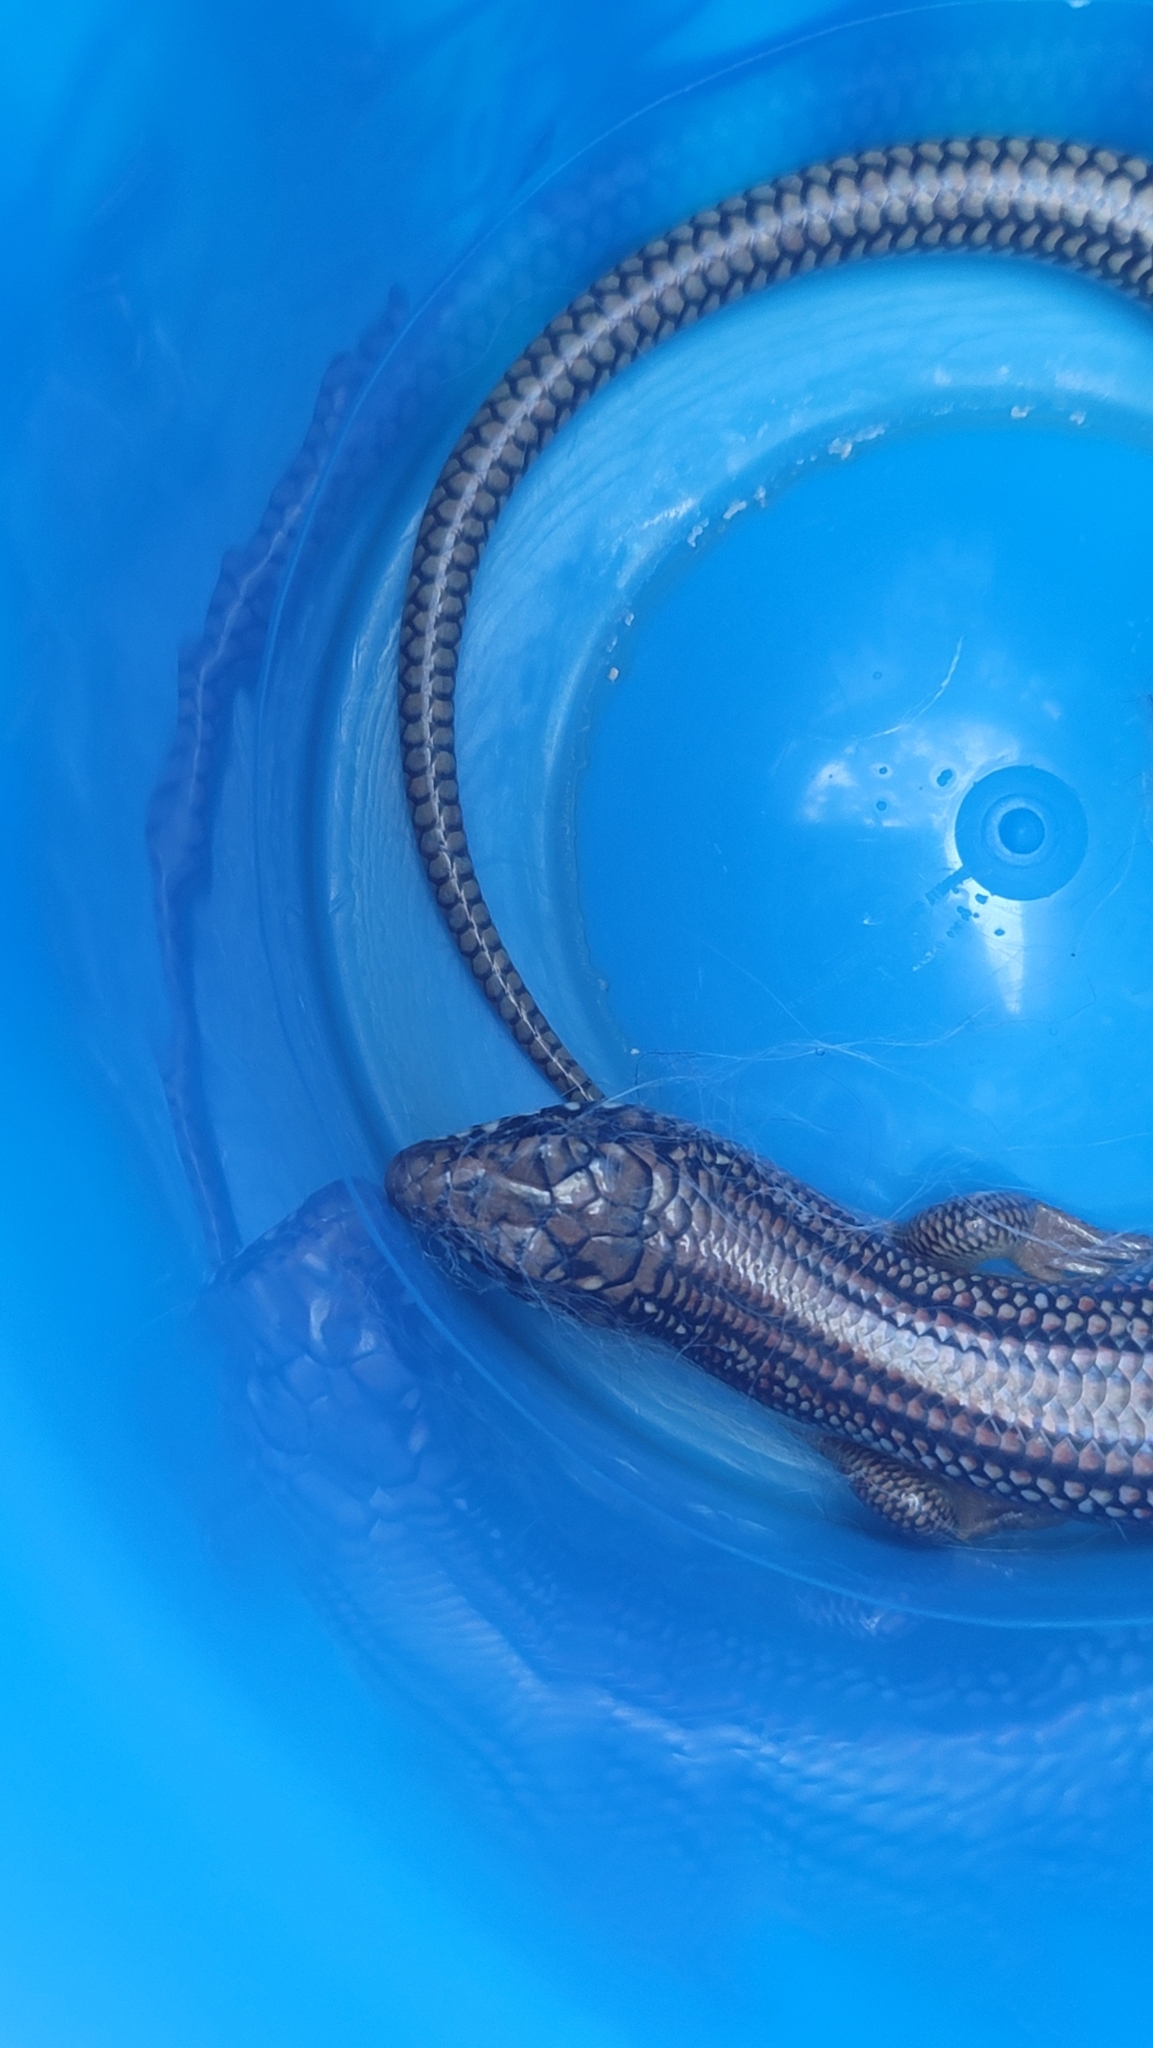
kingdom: Animalia
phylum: Chordata
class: Squamata
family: Scincidae
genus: Plestiodon
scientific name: Plestiodon obsoletus
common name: Great plains skink
